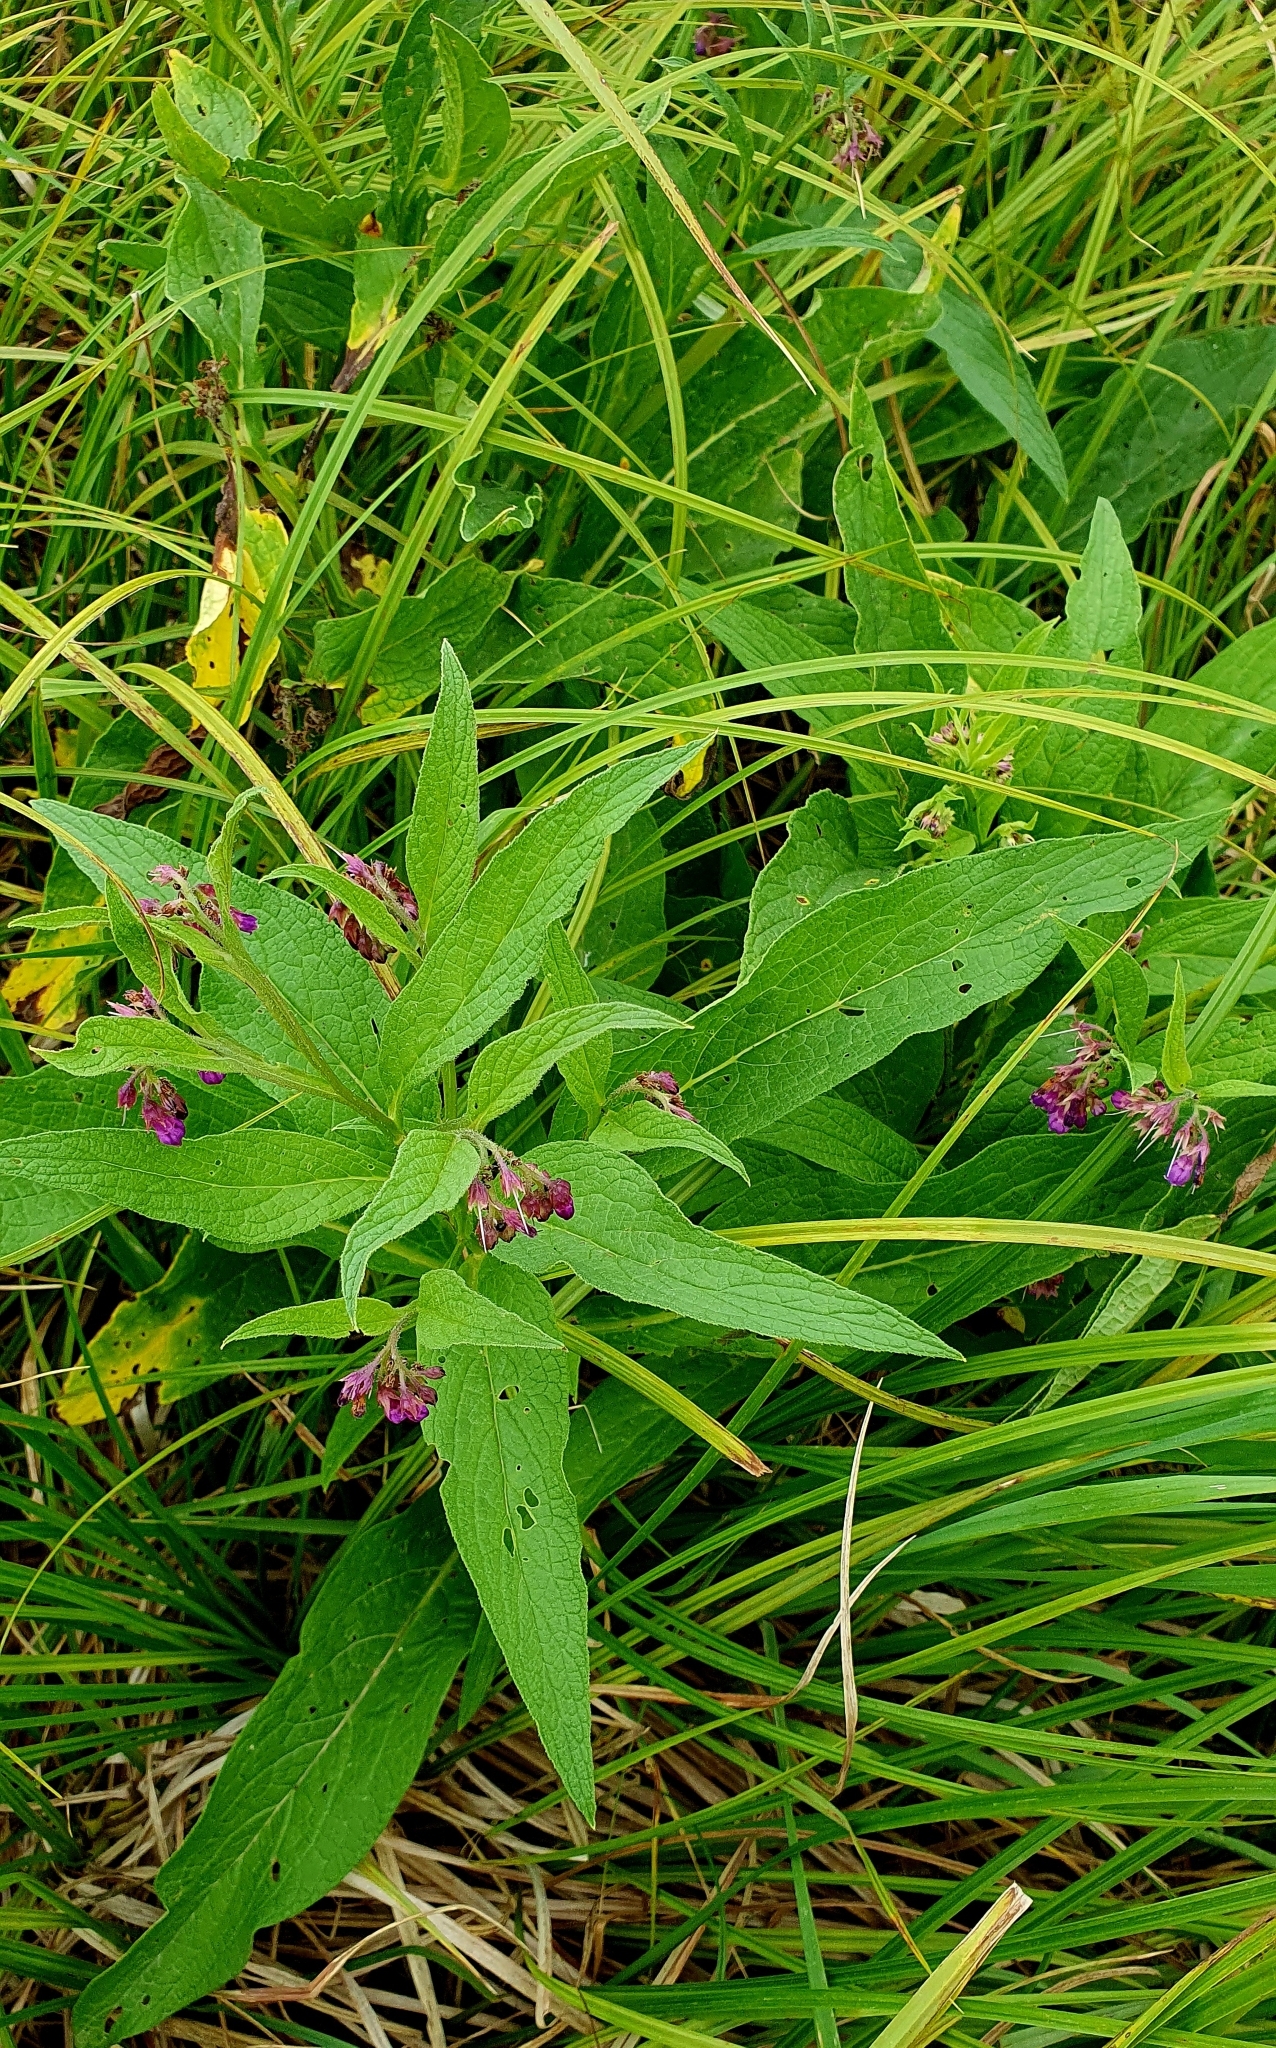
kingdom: Plantae
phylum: Tracheophyta
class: Magnoliopsida
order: Boraginales
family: Boraginaceae
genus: Symphytum
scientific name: Symphytum officinale
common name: Common comfrey
